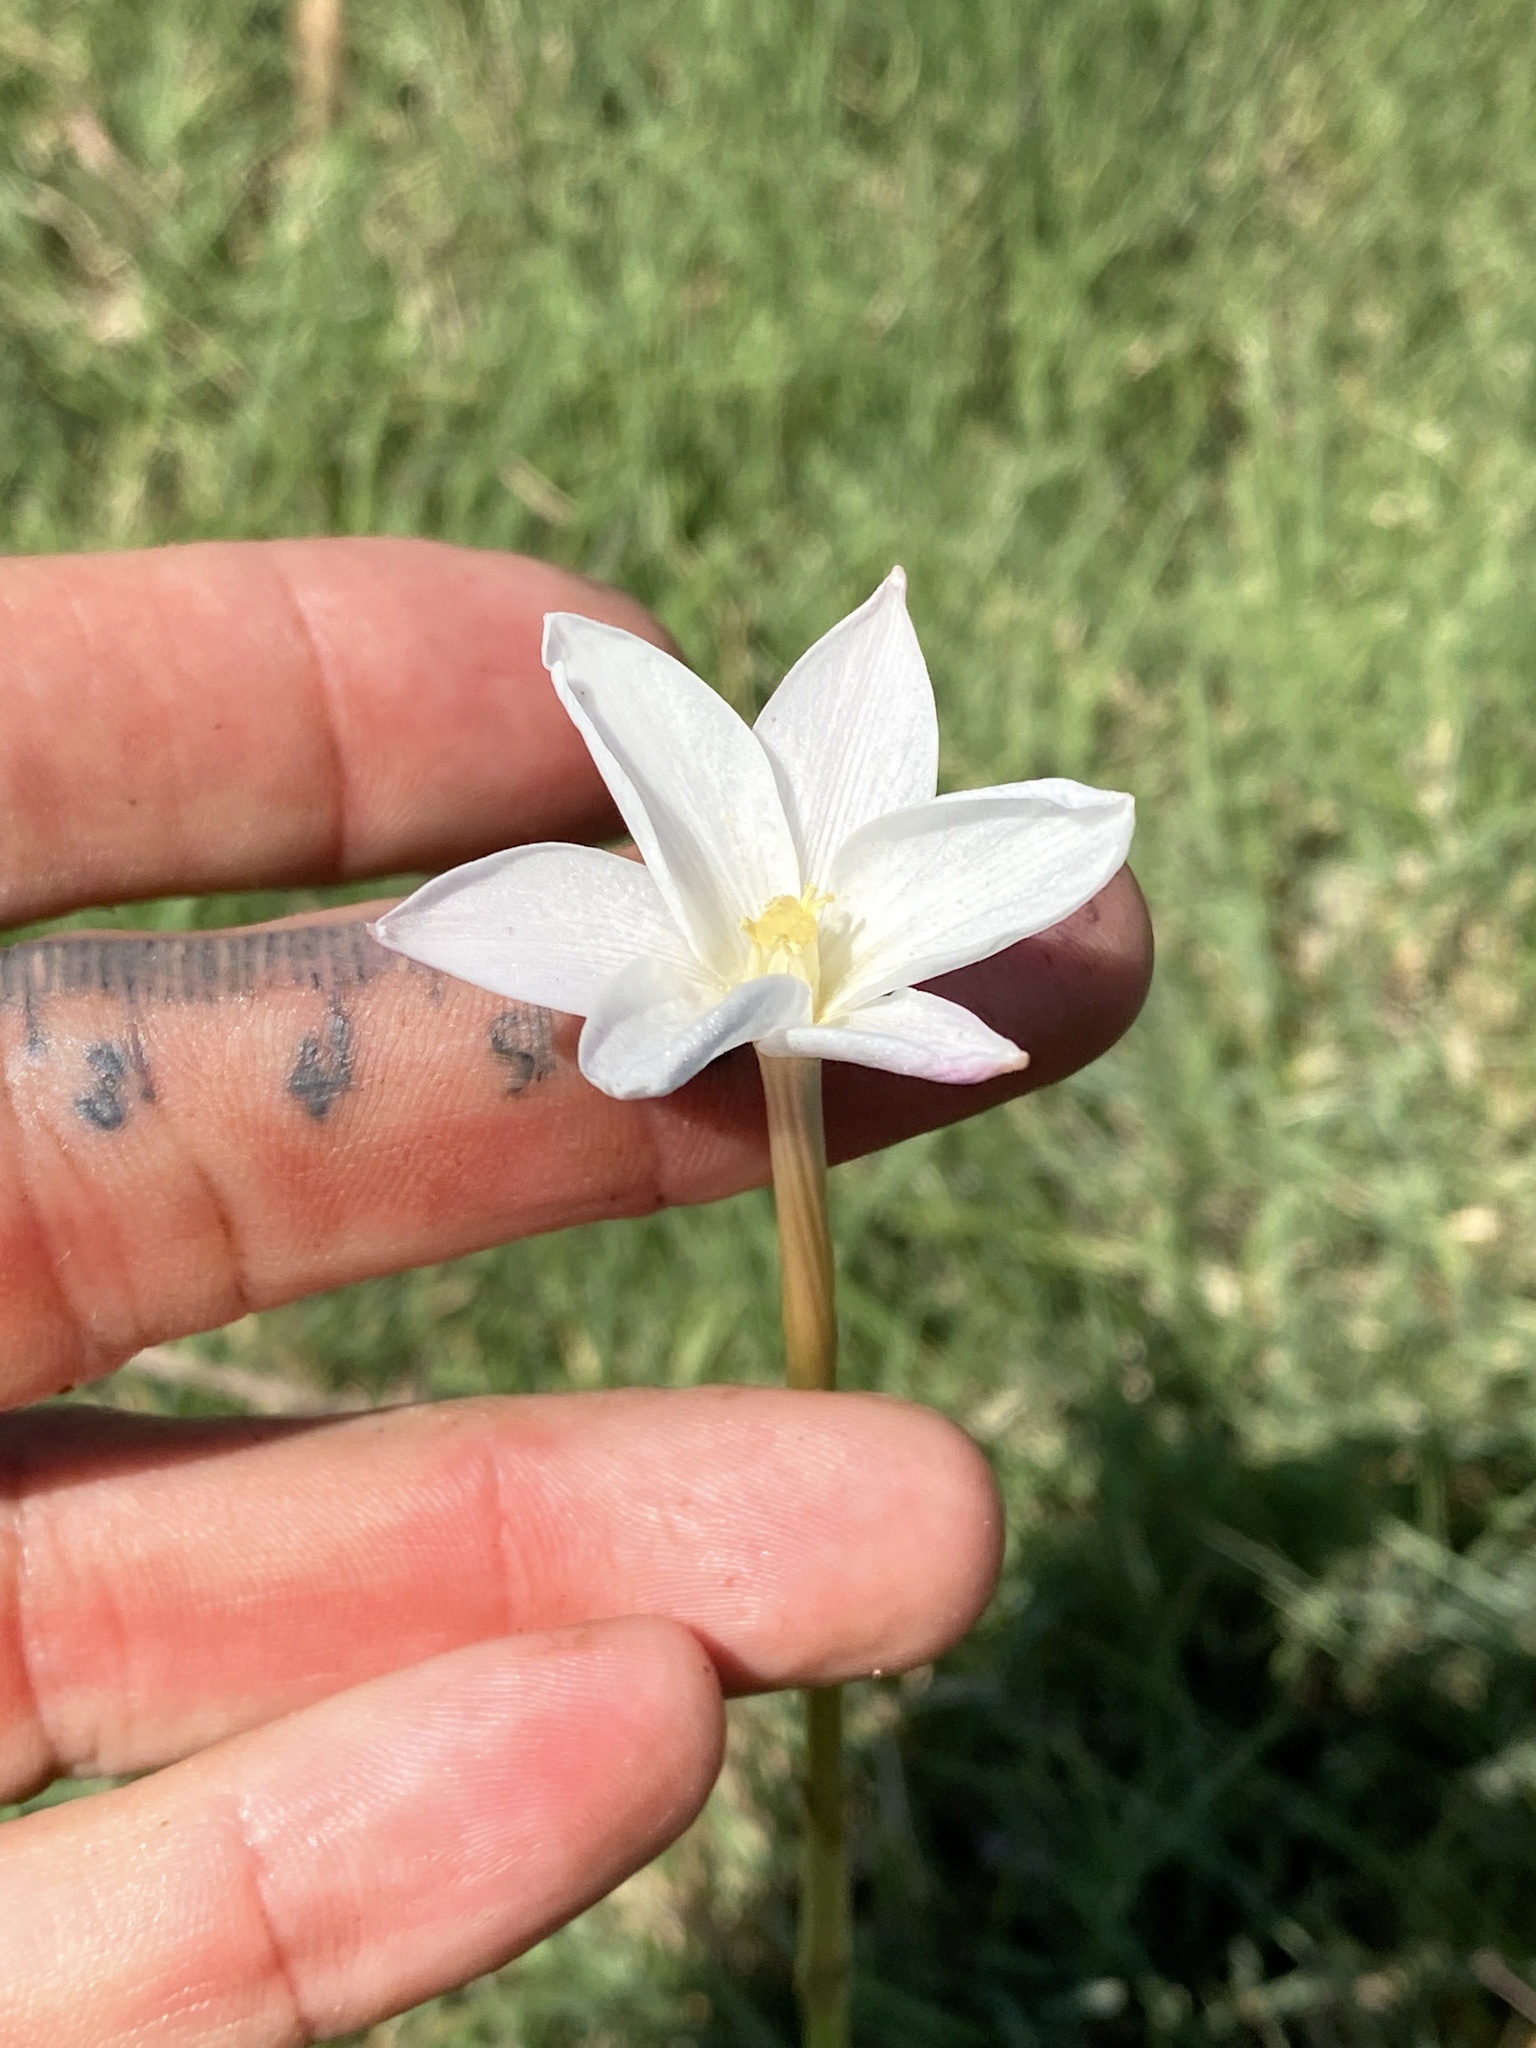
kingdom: Plantae
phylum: Tracheophyta
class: Liliopsida
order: Asparagales
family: Amaryllidaceae
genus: Zephyranthes
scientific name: Zephyranthes chlorosolen
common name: Evening rain-lily
